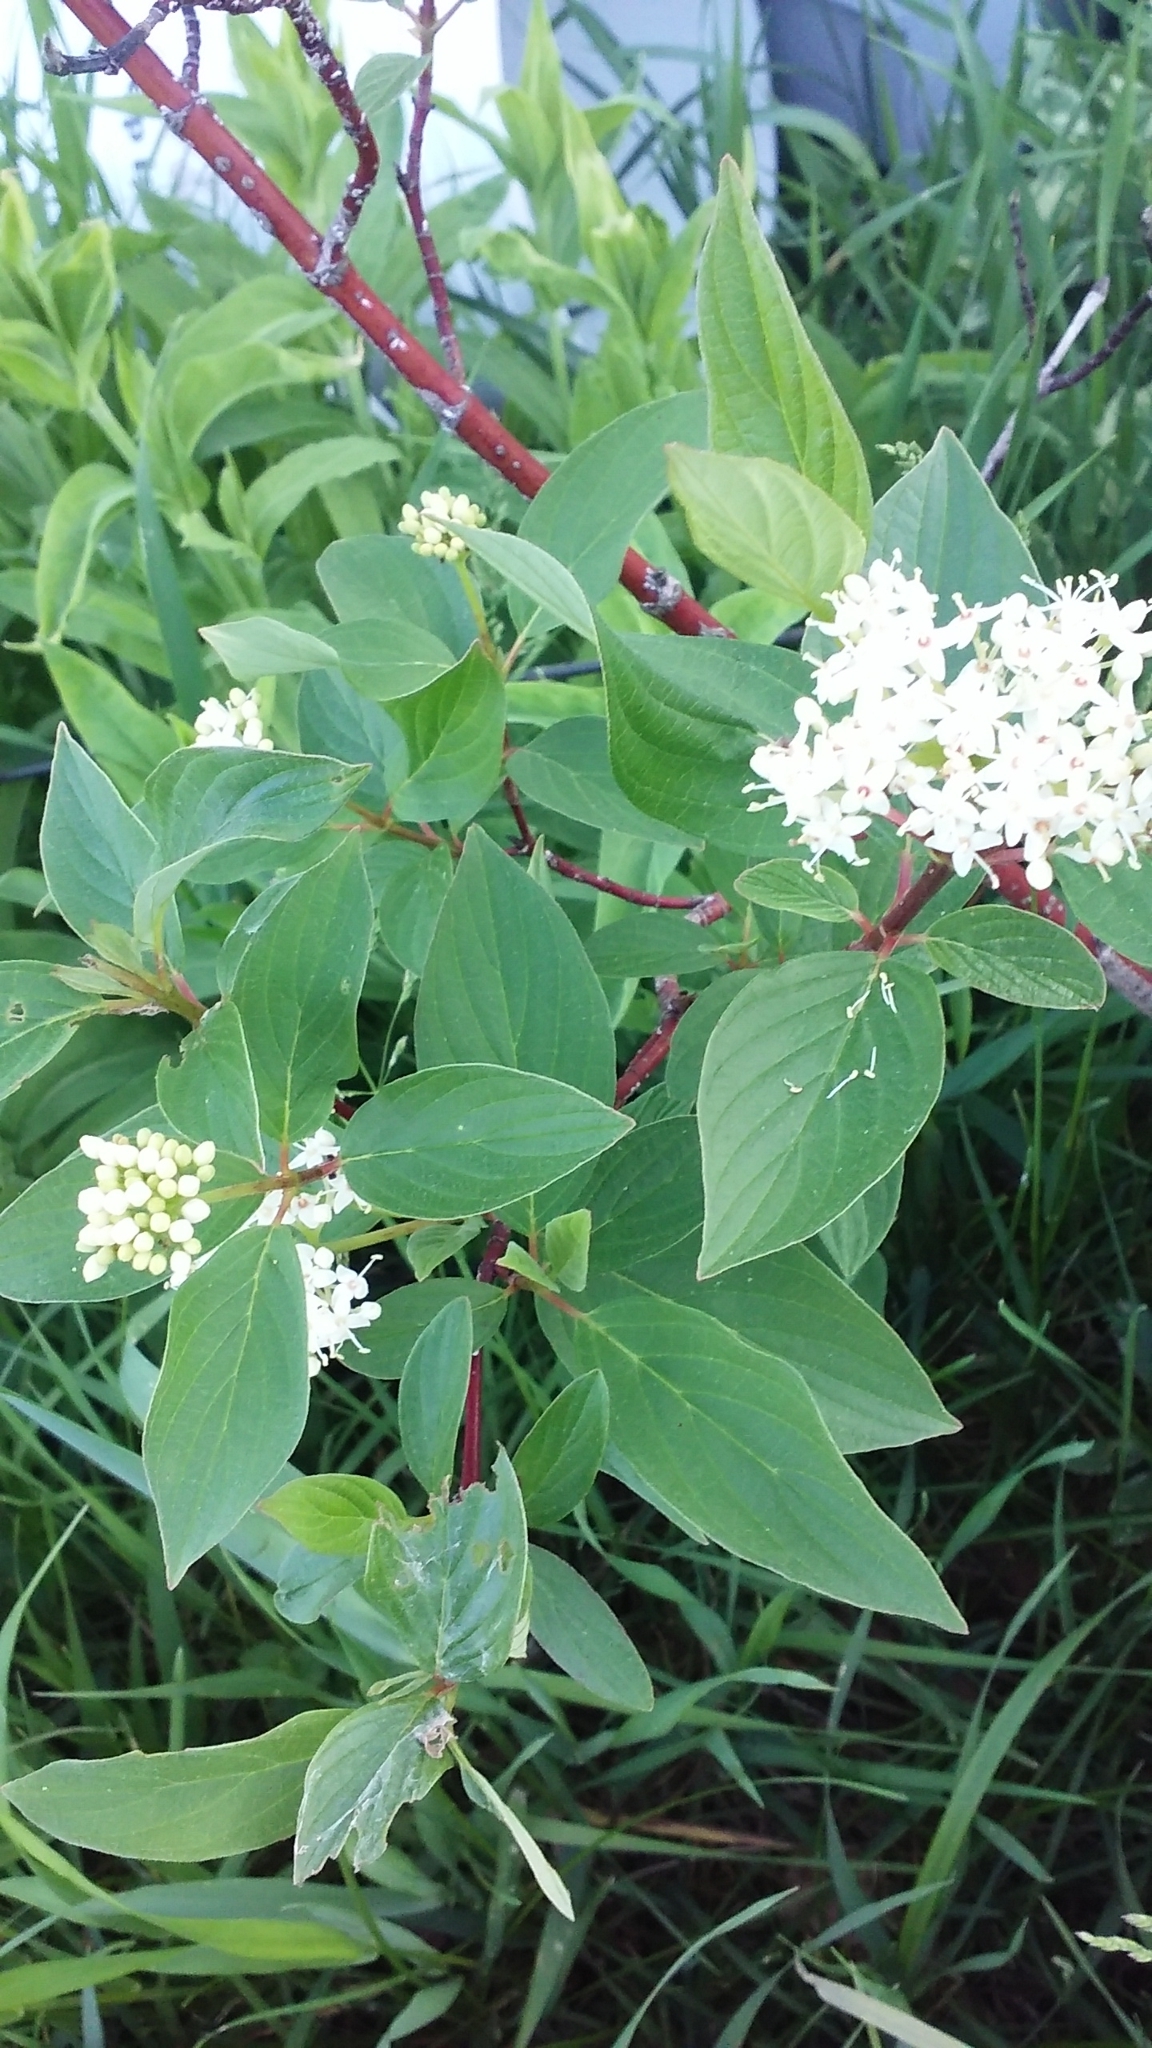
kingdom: Plantae
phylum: Tracheophyta
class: Magnoliopsida
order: Cornales
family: Cornaceae
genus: Cornus
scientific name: Cornus sericea
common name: Red-osier dogwood
